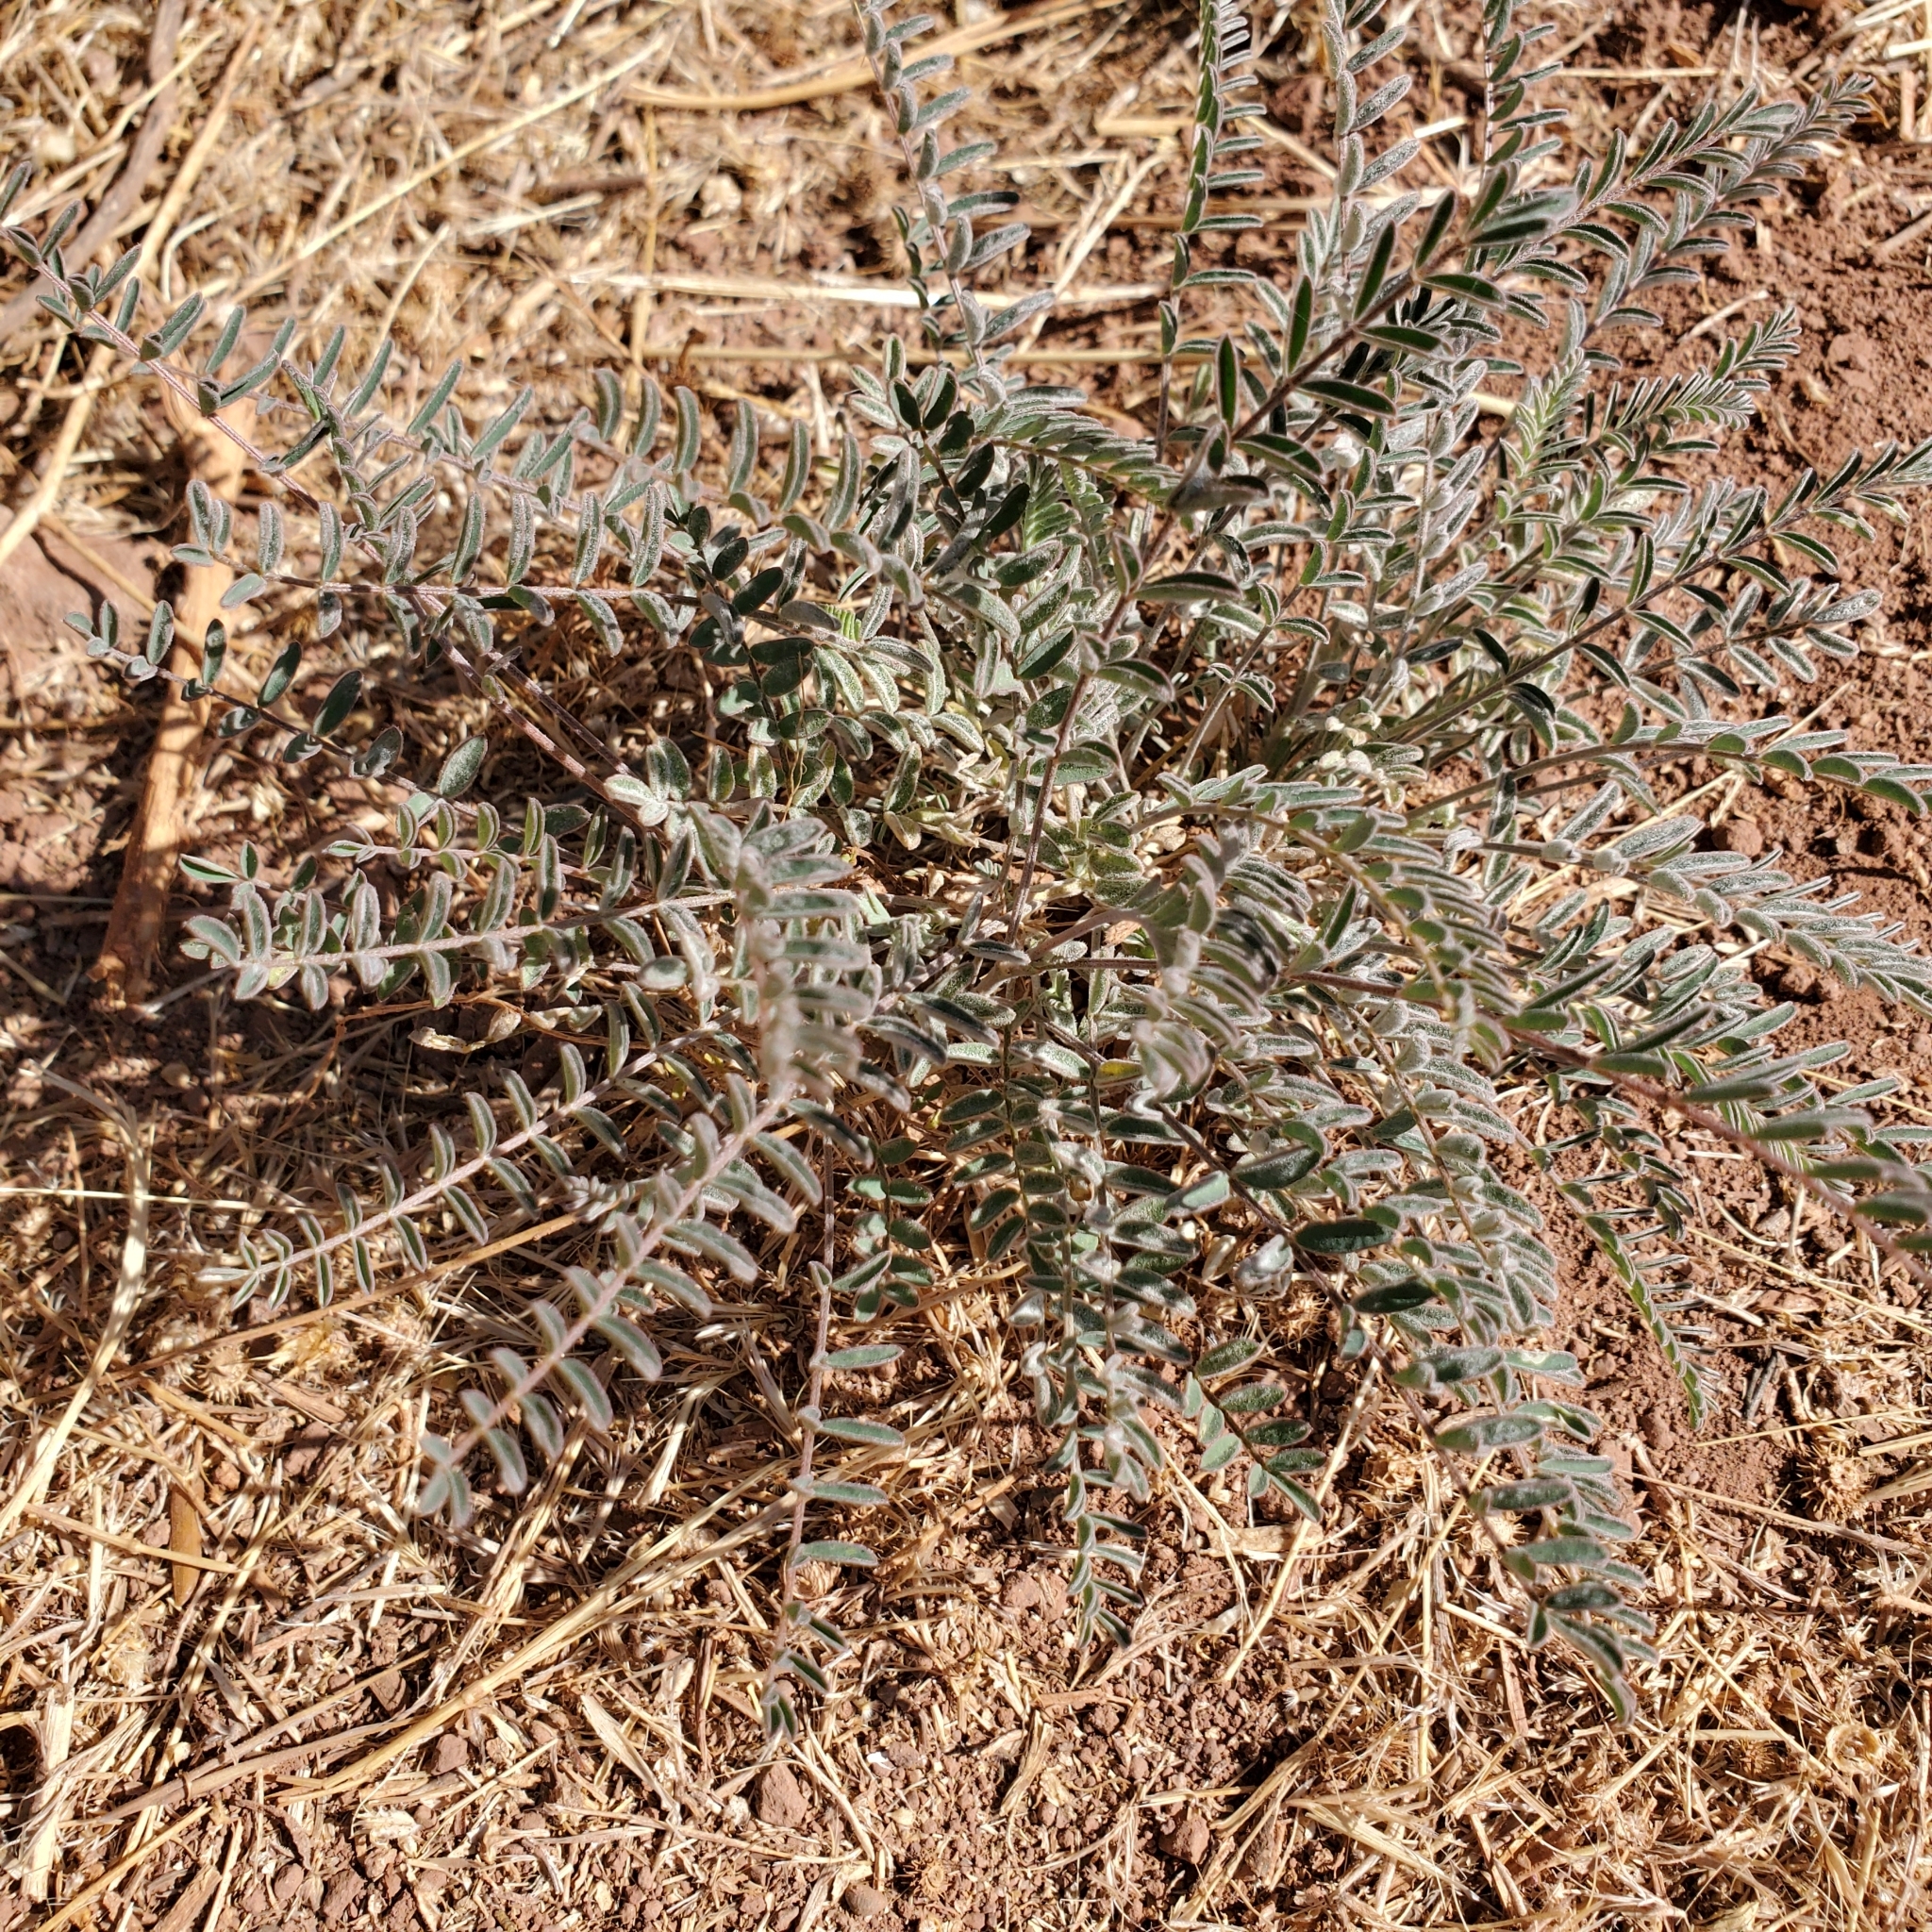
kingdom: Plantae
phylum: Tracheophyta
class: Magnoliopsida
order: Fabales
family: Fabaceae
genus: Astragalus
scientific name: Astragalus trichopodus
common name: Santa barbara milk-vetch
